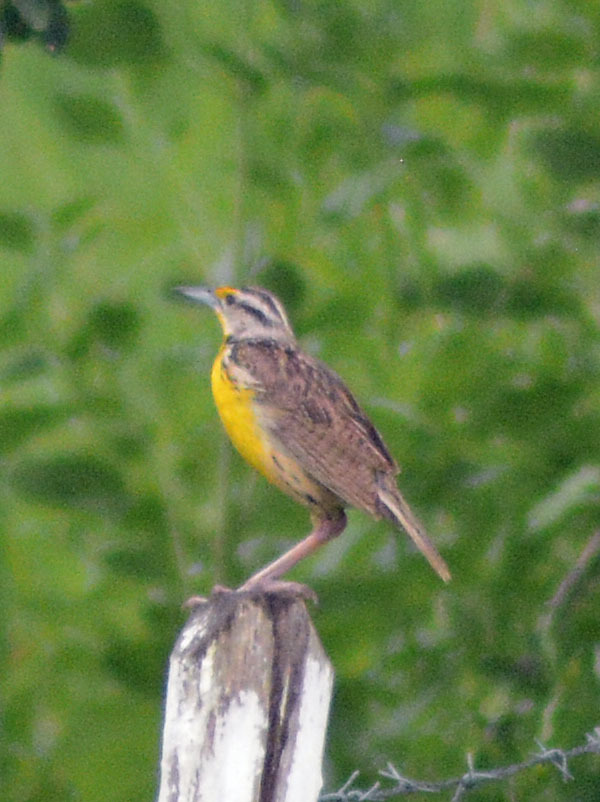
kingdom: Animalia
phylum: Chordata
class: Aves
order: Passeriformes
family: Icteridae
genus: Sturnella
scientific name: Sturnella magna
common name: Eastern meadowlark
